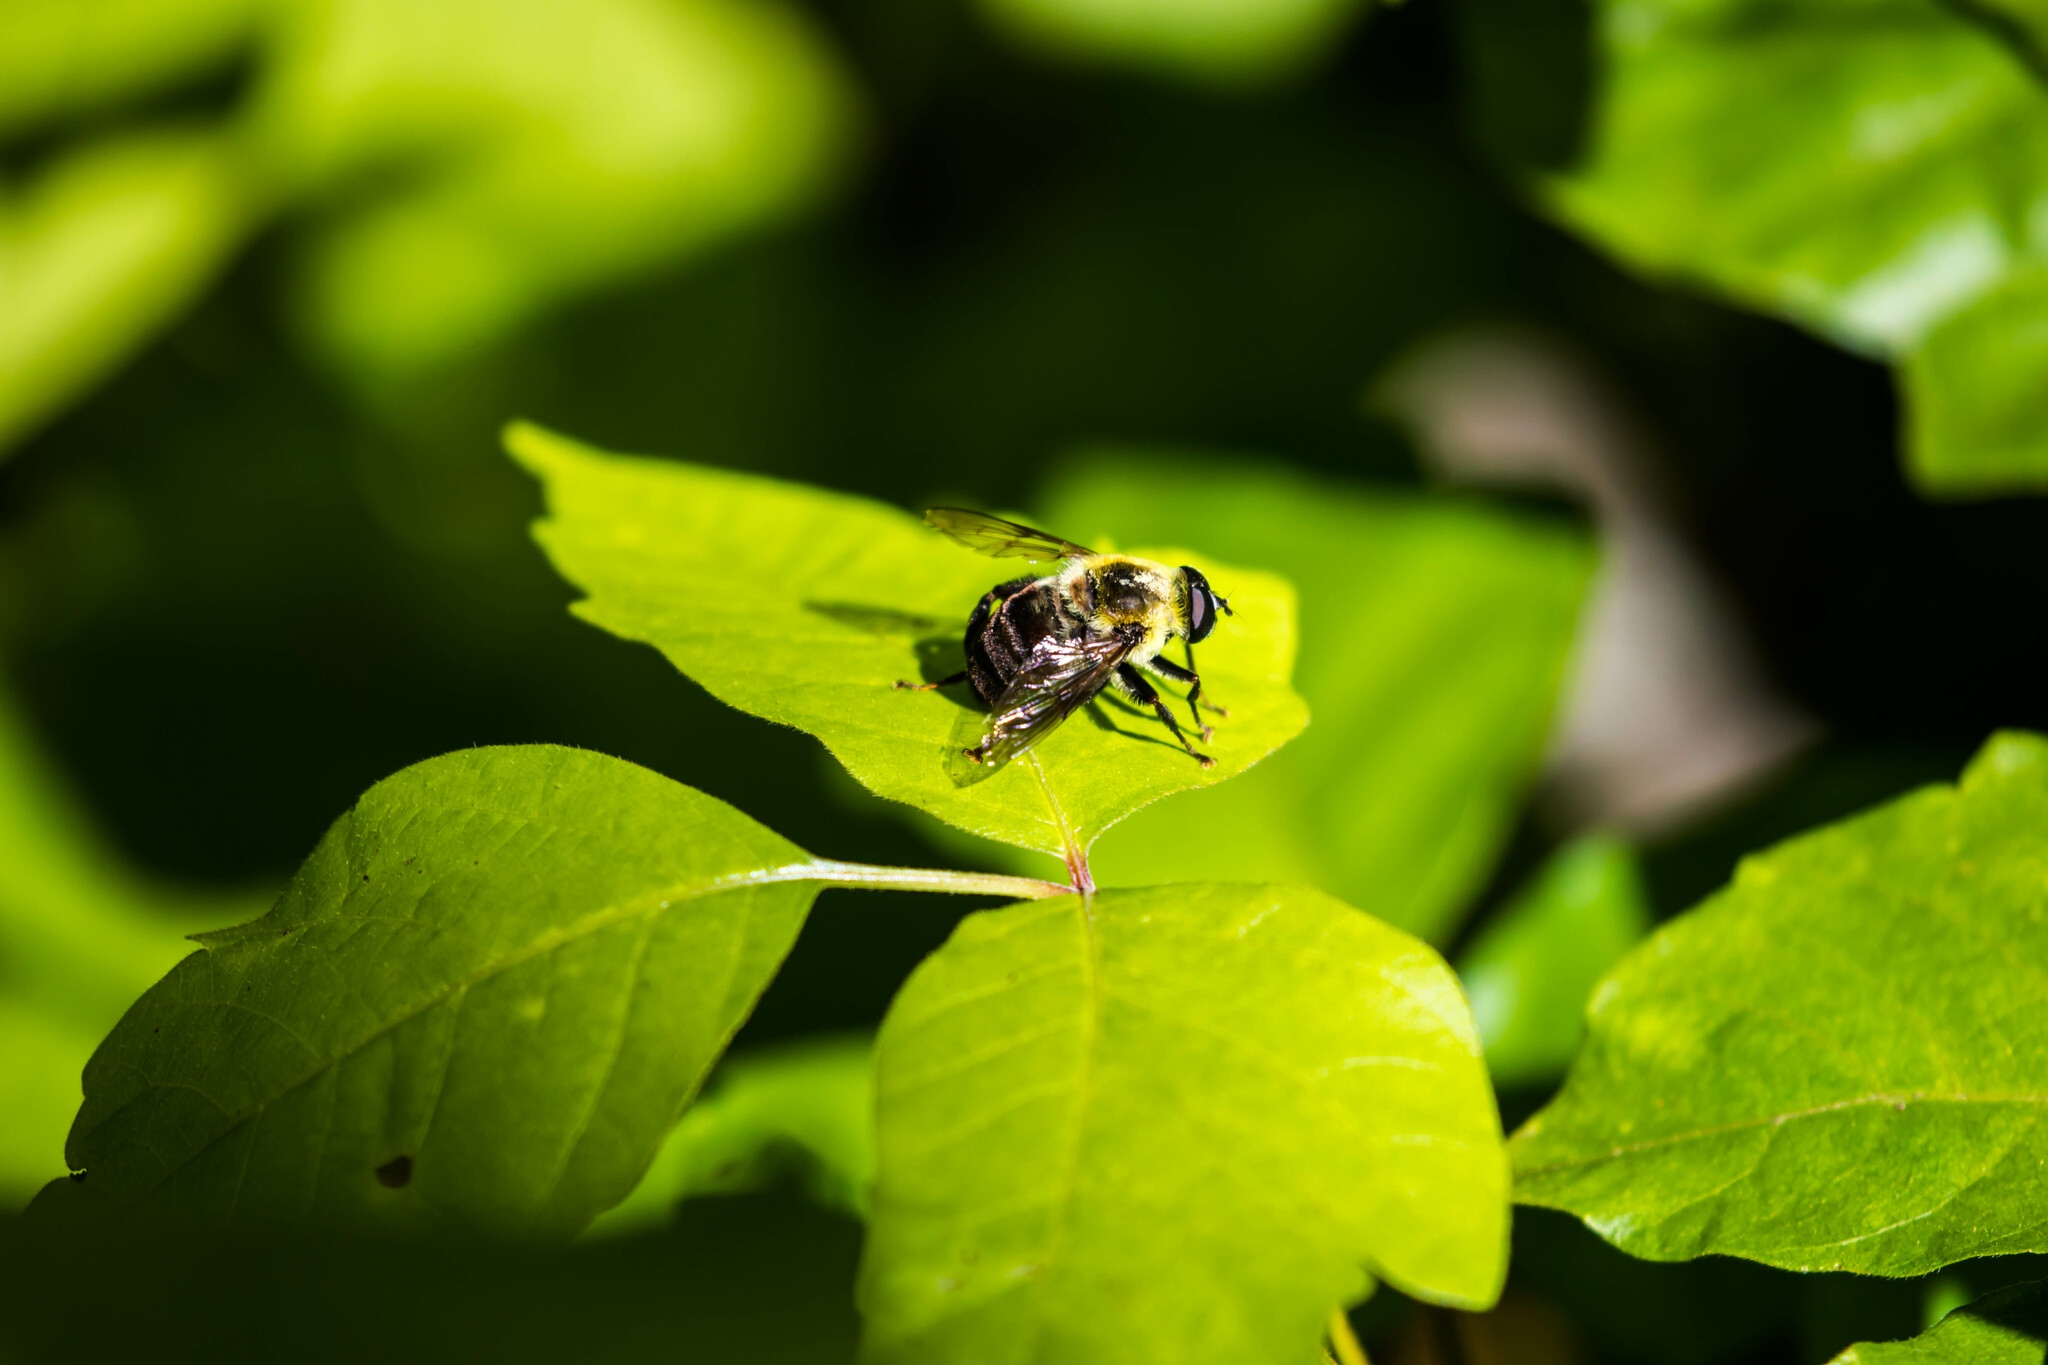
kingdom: Animalia
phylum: Arthropoda
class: Insecta
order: Diptera
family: Syrphidae
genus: Imatisma
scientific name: Imatisma posticata
